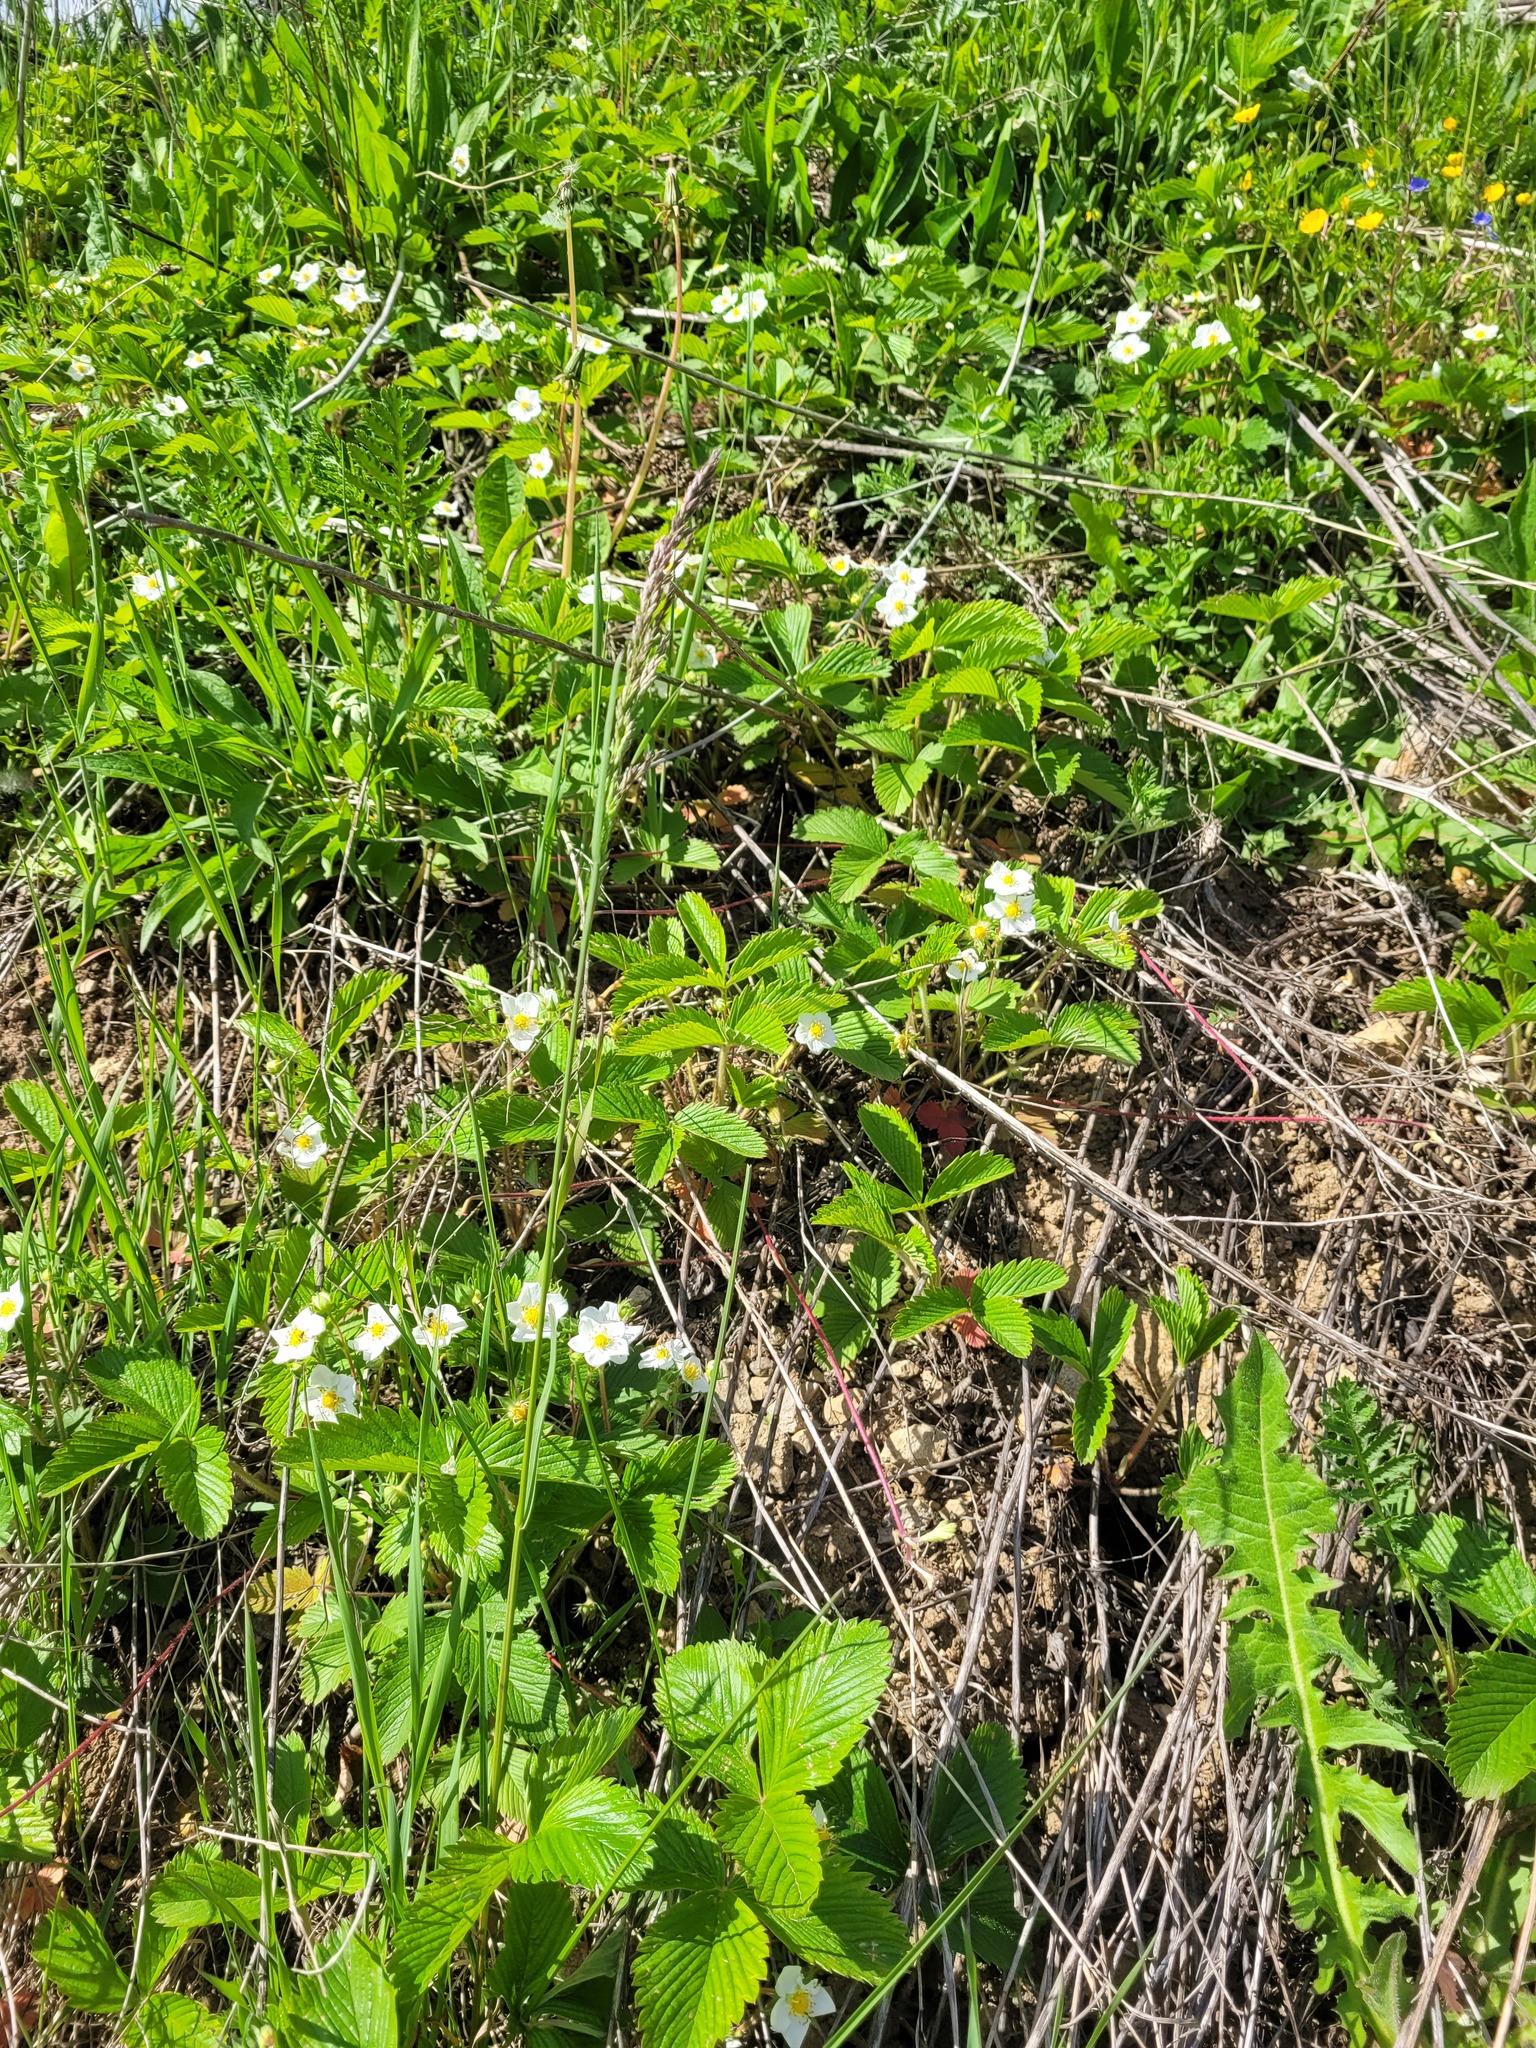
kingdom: Plantae
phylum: Tracheophyta
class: Magnoliopsida
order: Rosales
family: Rosaceae
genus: Fragaria
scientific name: Fragaria viridis
